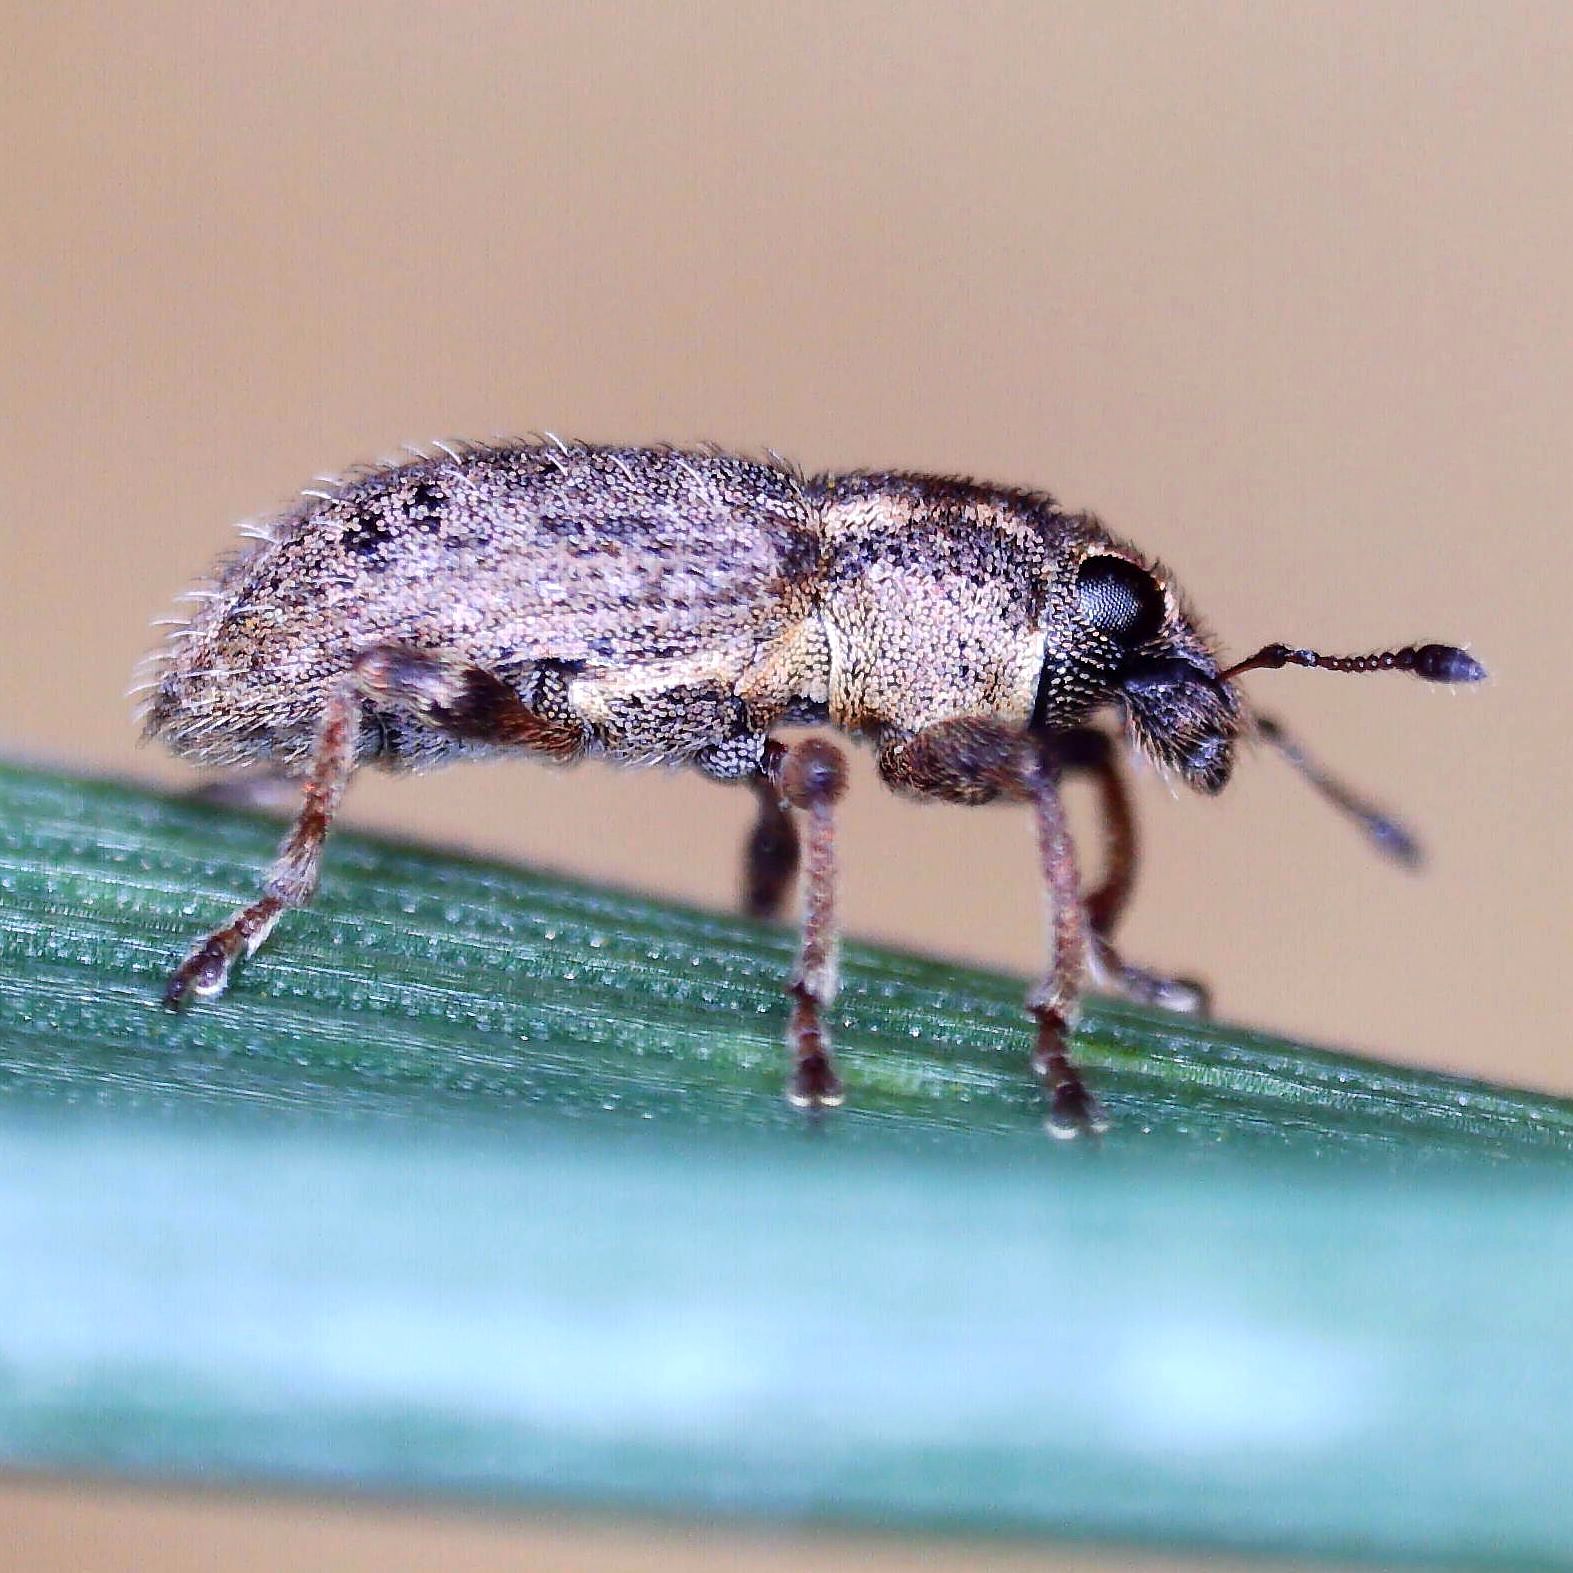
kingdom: Animalia
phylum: Arthropoda
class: Insecta
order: Coleoptera
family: Curculionidae
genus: Sitona
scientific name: Sitona hispidulus
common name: Clover weevil
